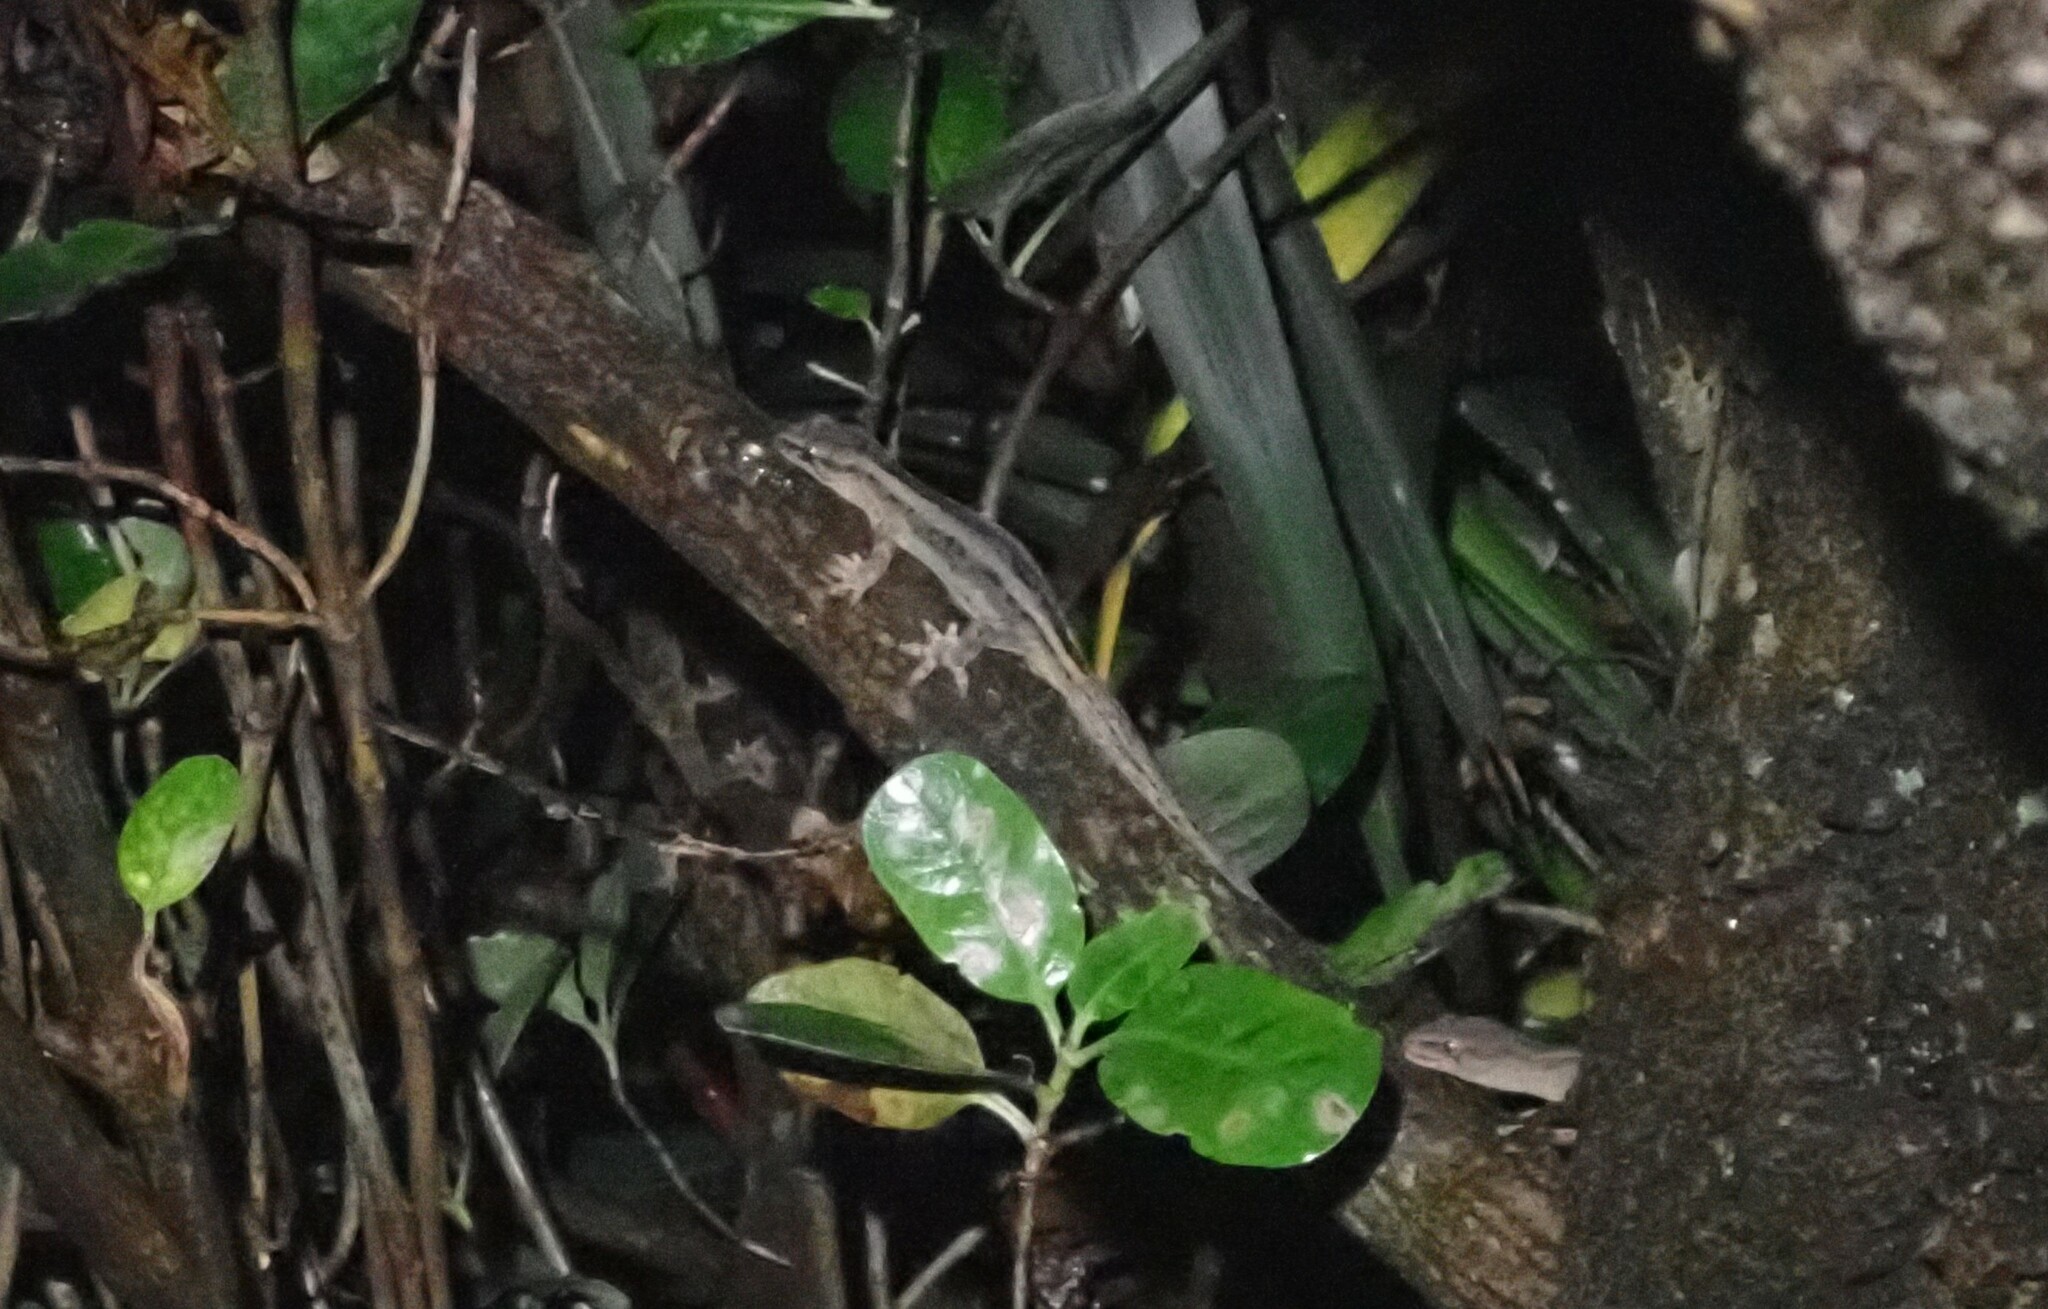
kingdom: Animalia
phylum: Chordata
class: Squamata
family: Diplodactylidae
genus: Woodworthia
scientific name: Woodworthia maculata
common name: Raukawa gecko
